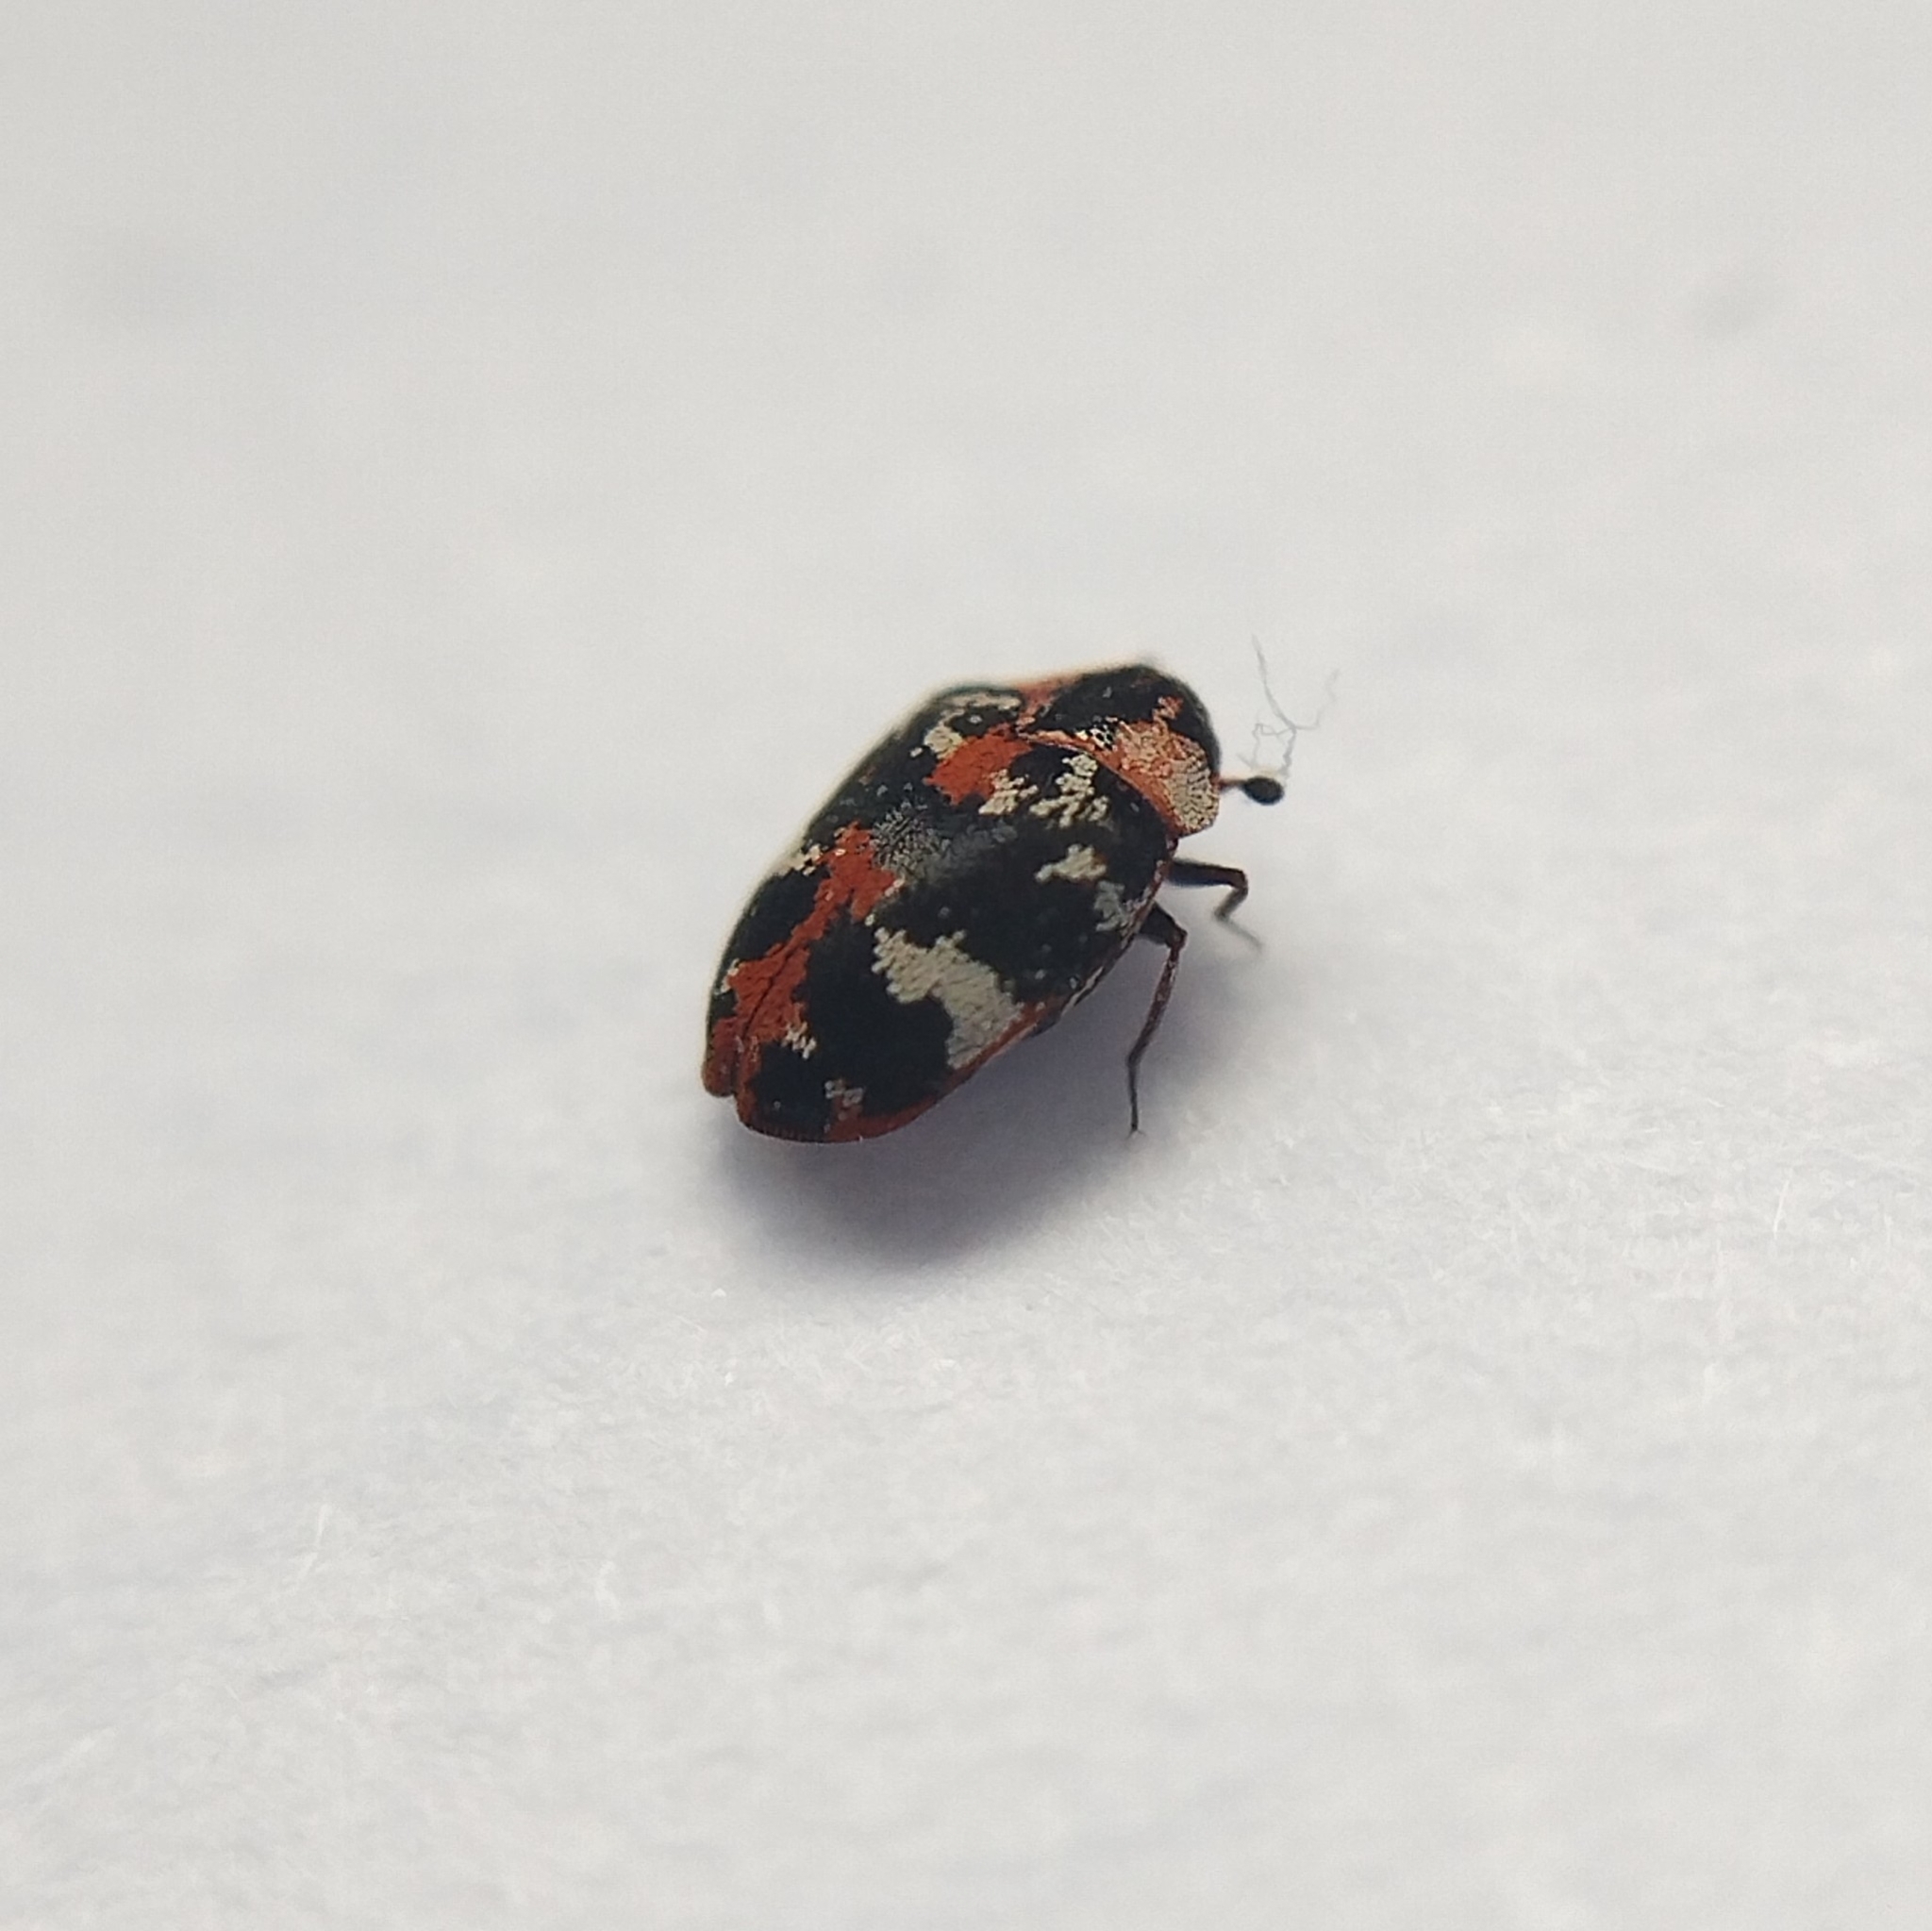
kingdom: Animalia
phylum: Arthropoda
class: Insecta
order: Coleoptera
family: Dermestidae
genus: Anthrenus
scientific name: Anthrenus scrophulariae
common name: Buffalo carpet beetle
